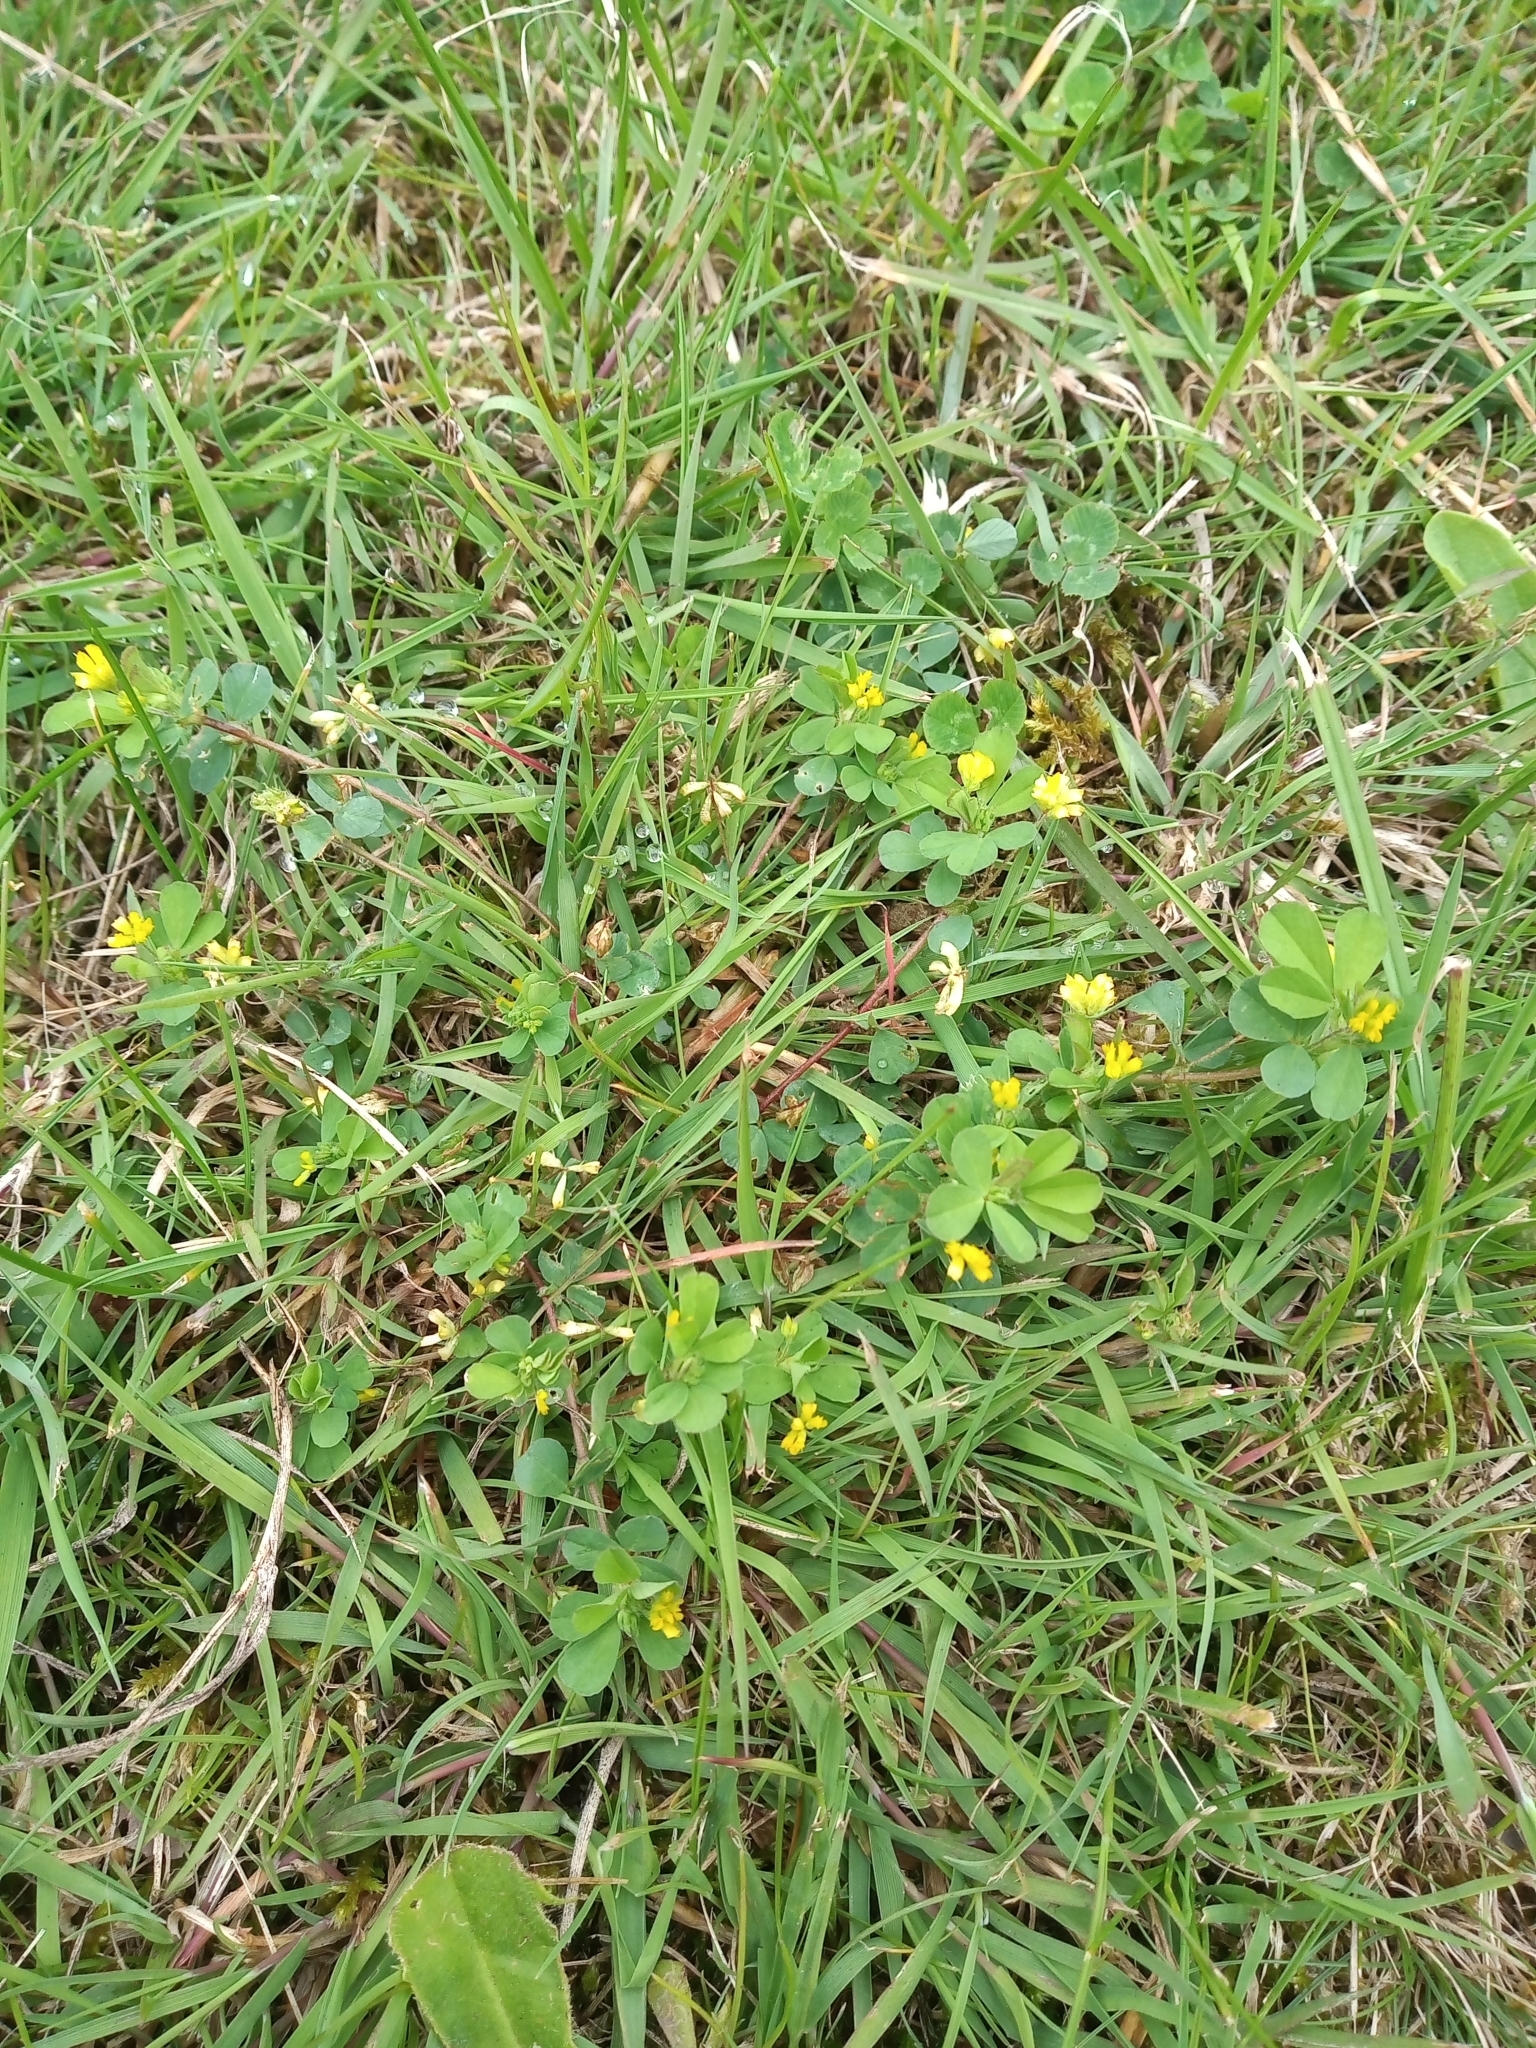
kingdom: Plantae
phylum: Tracheophyta
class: Magnoliopsida
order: Fabales
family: Fabaceae
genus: Trifolium
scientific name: Trifolium dubium
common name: Suckling clover
